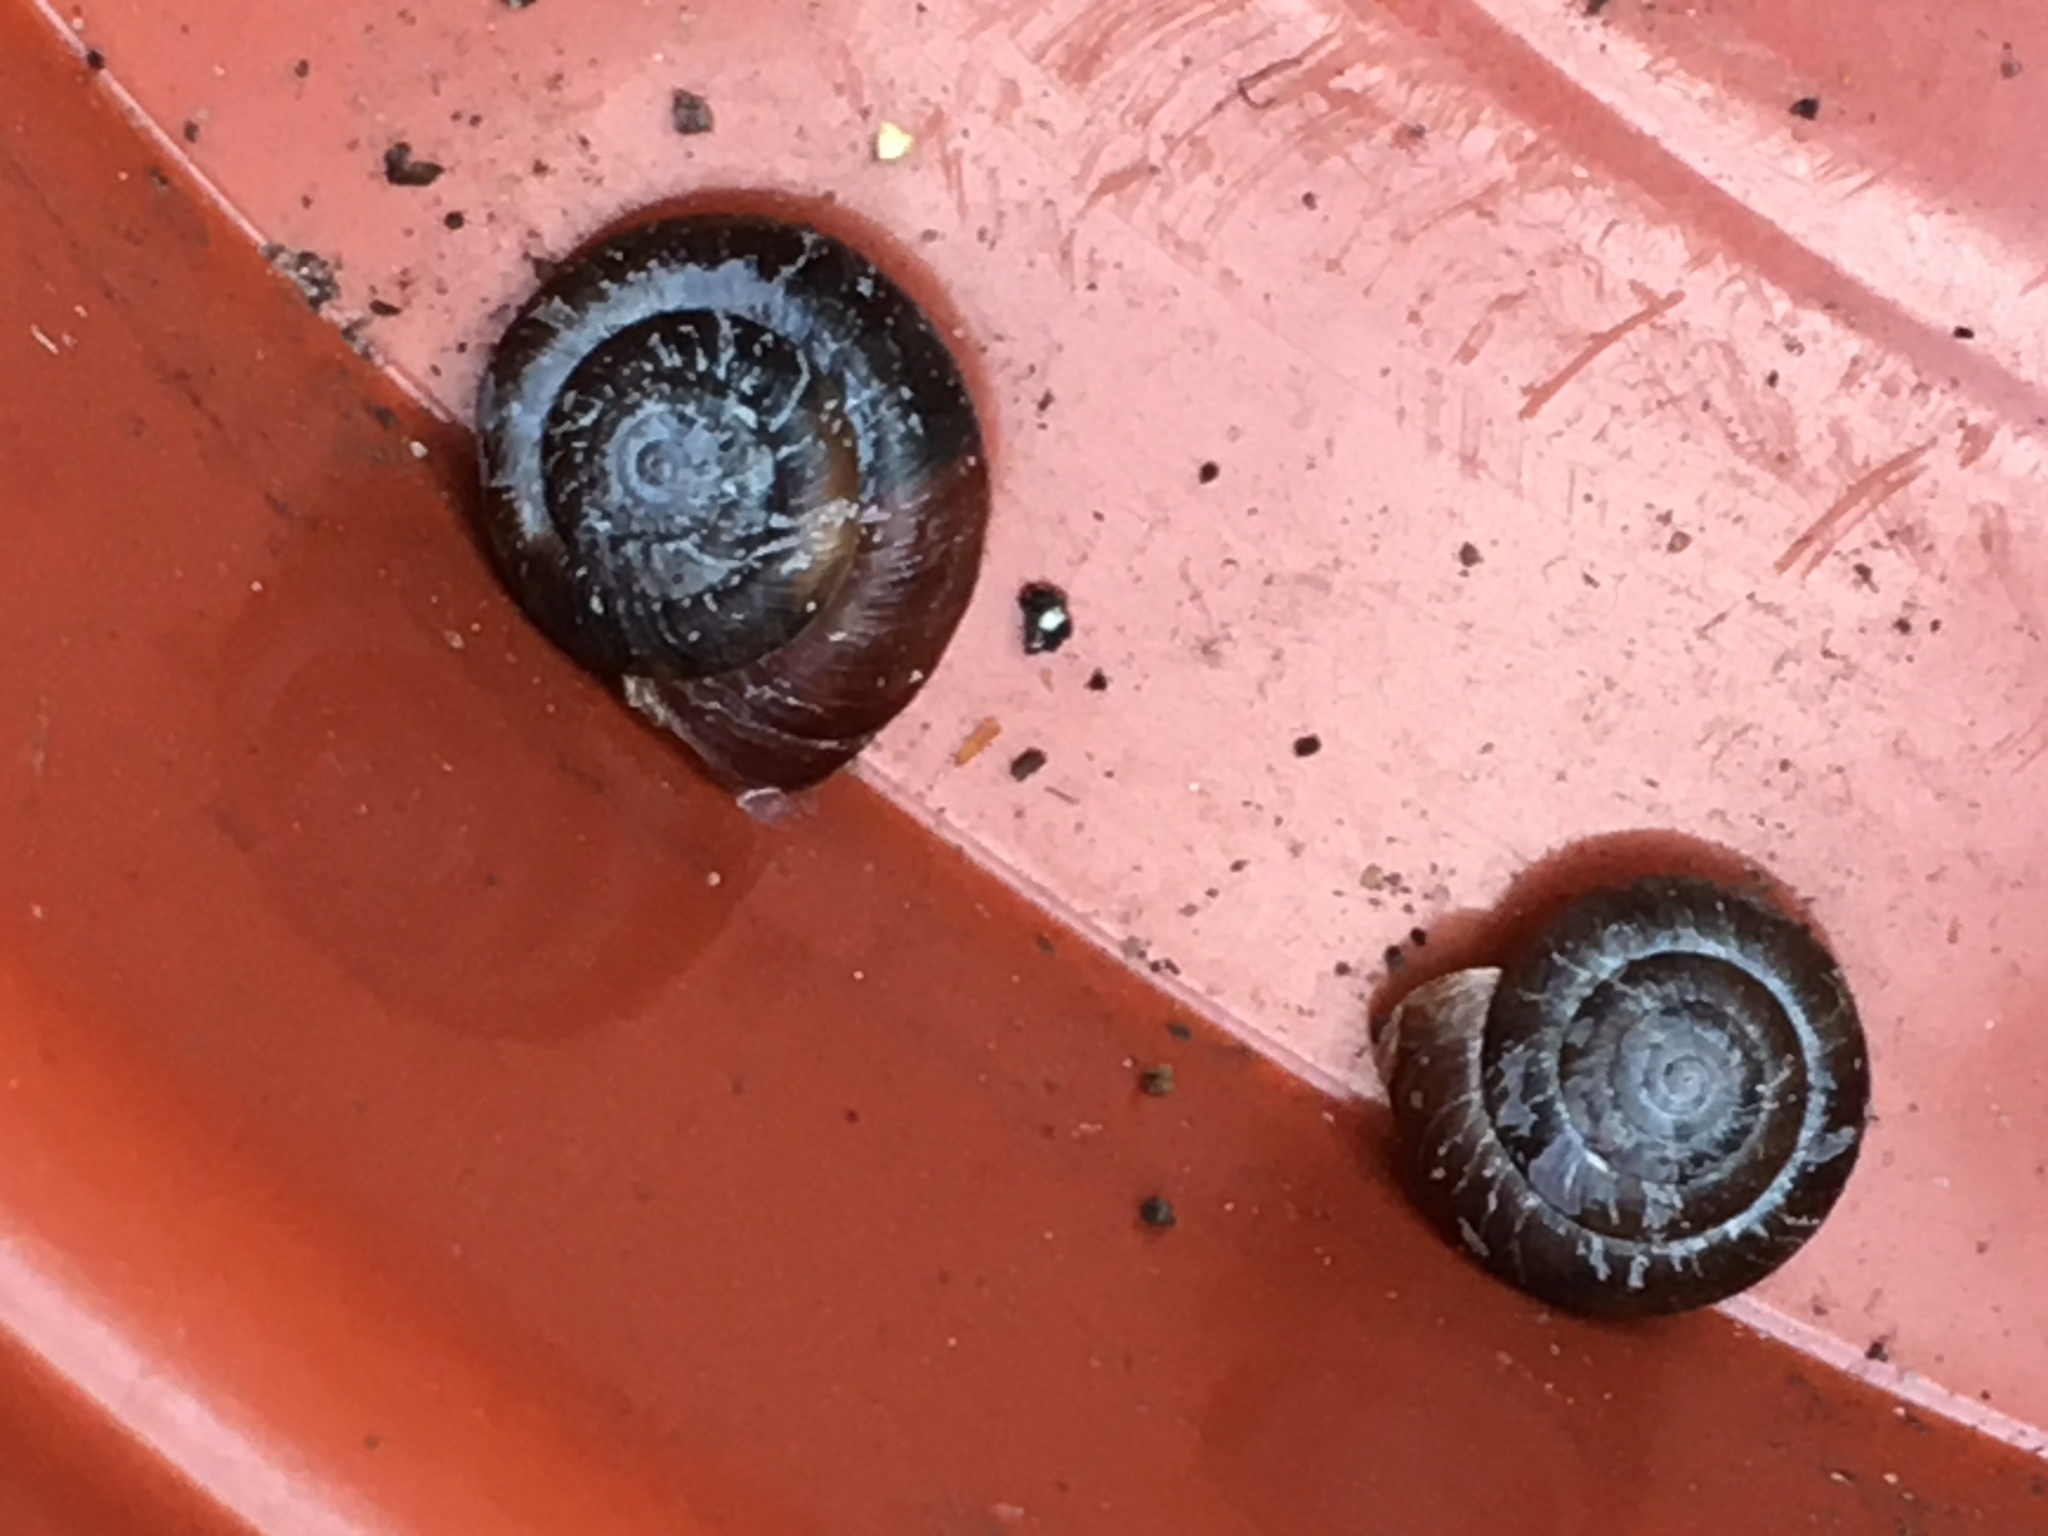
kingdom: Animalia
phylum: Mollusca
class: Gastropoda
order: Stylommatophora
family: Hygromiidae
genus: Trochulus
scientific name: Trochulus striolatus
